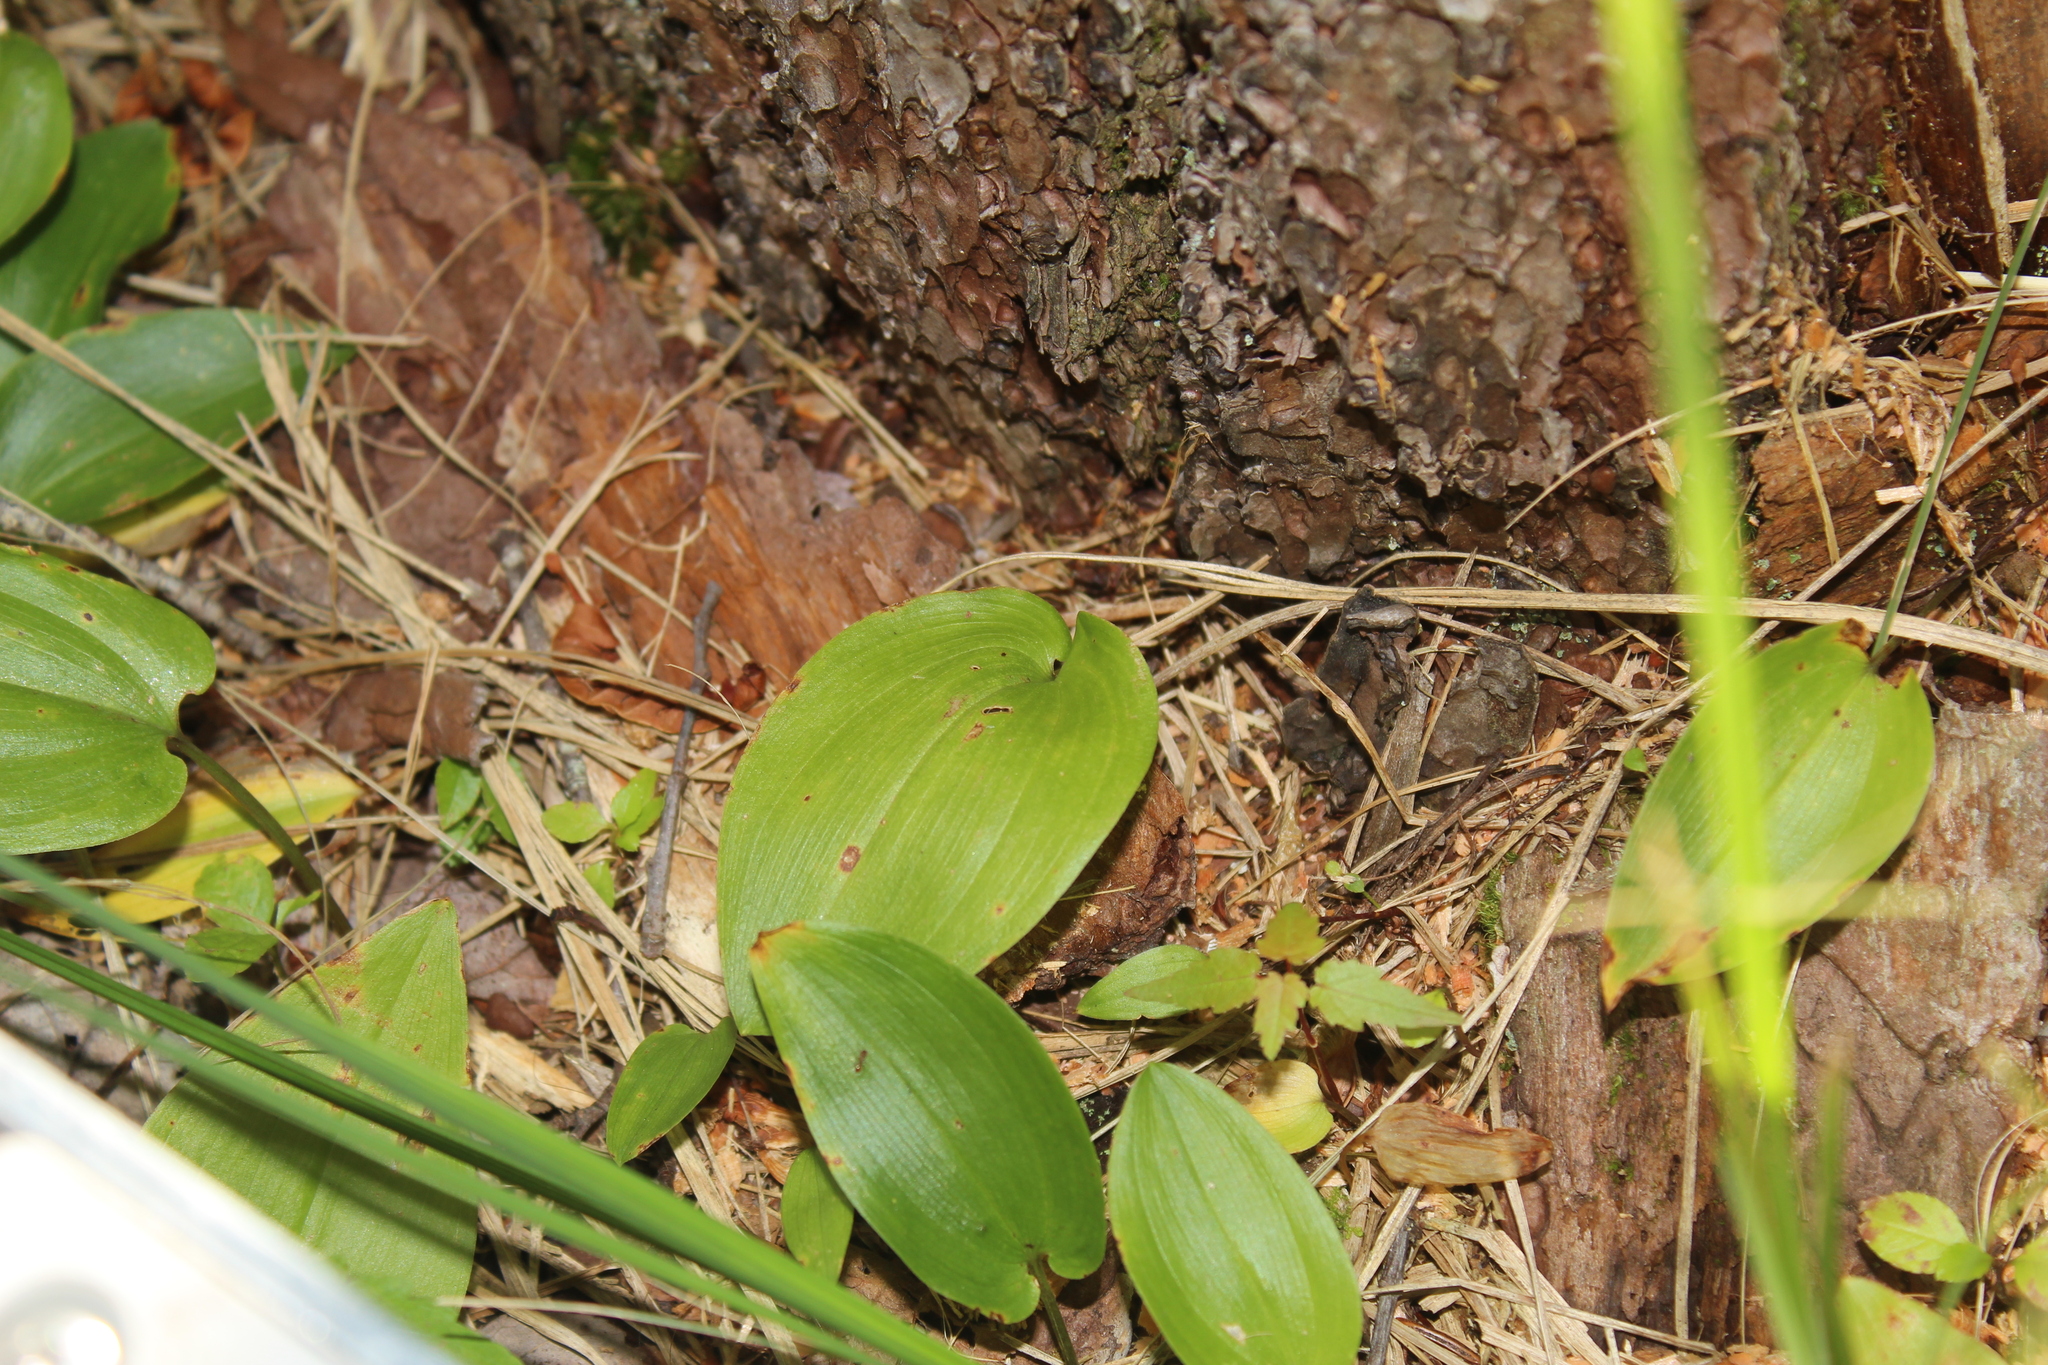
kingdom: Plantae
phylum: Tracheophyta
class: Liliopsida
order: Asparagales
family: Asparagaceae
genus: Maianthemum
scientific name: Maianthemum canadense
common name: False lily-of-the-valley
